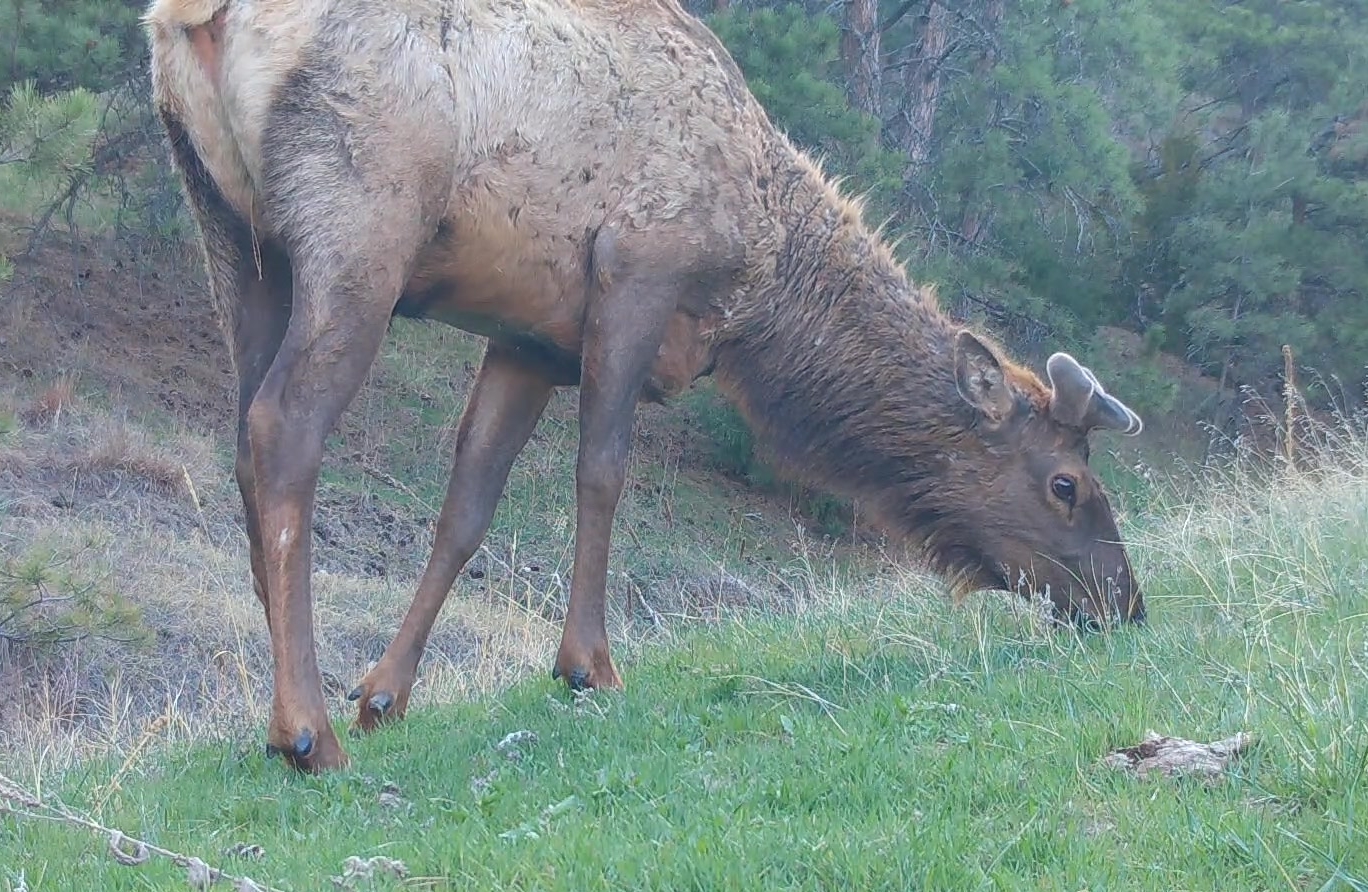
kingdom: Animalia
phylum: Chordata
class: Mammalia
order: Artiodactyla
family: Cervidae
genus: Cervus
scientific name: Cervus elaphus
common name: Red deer
